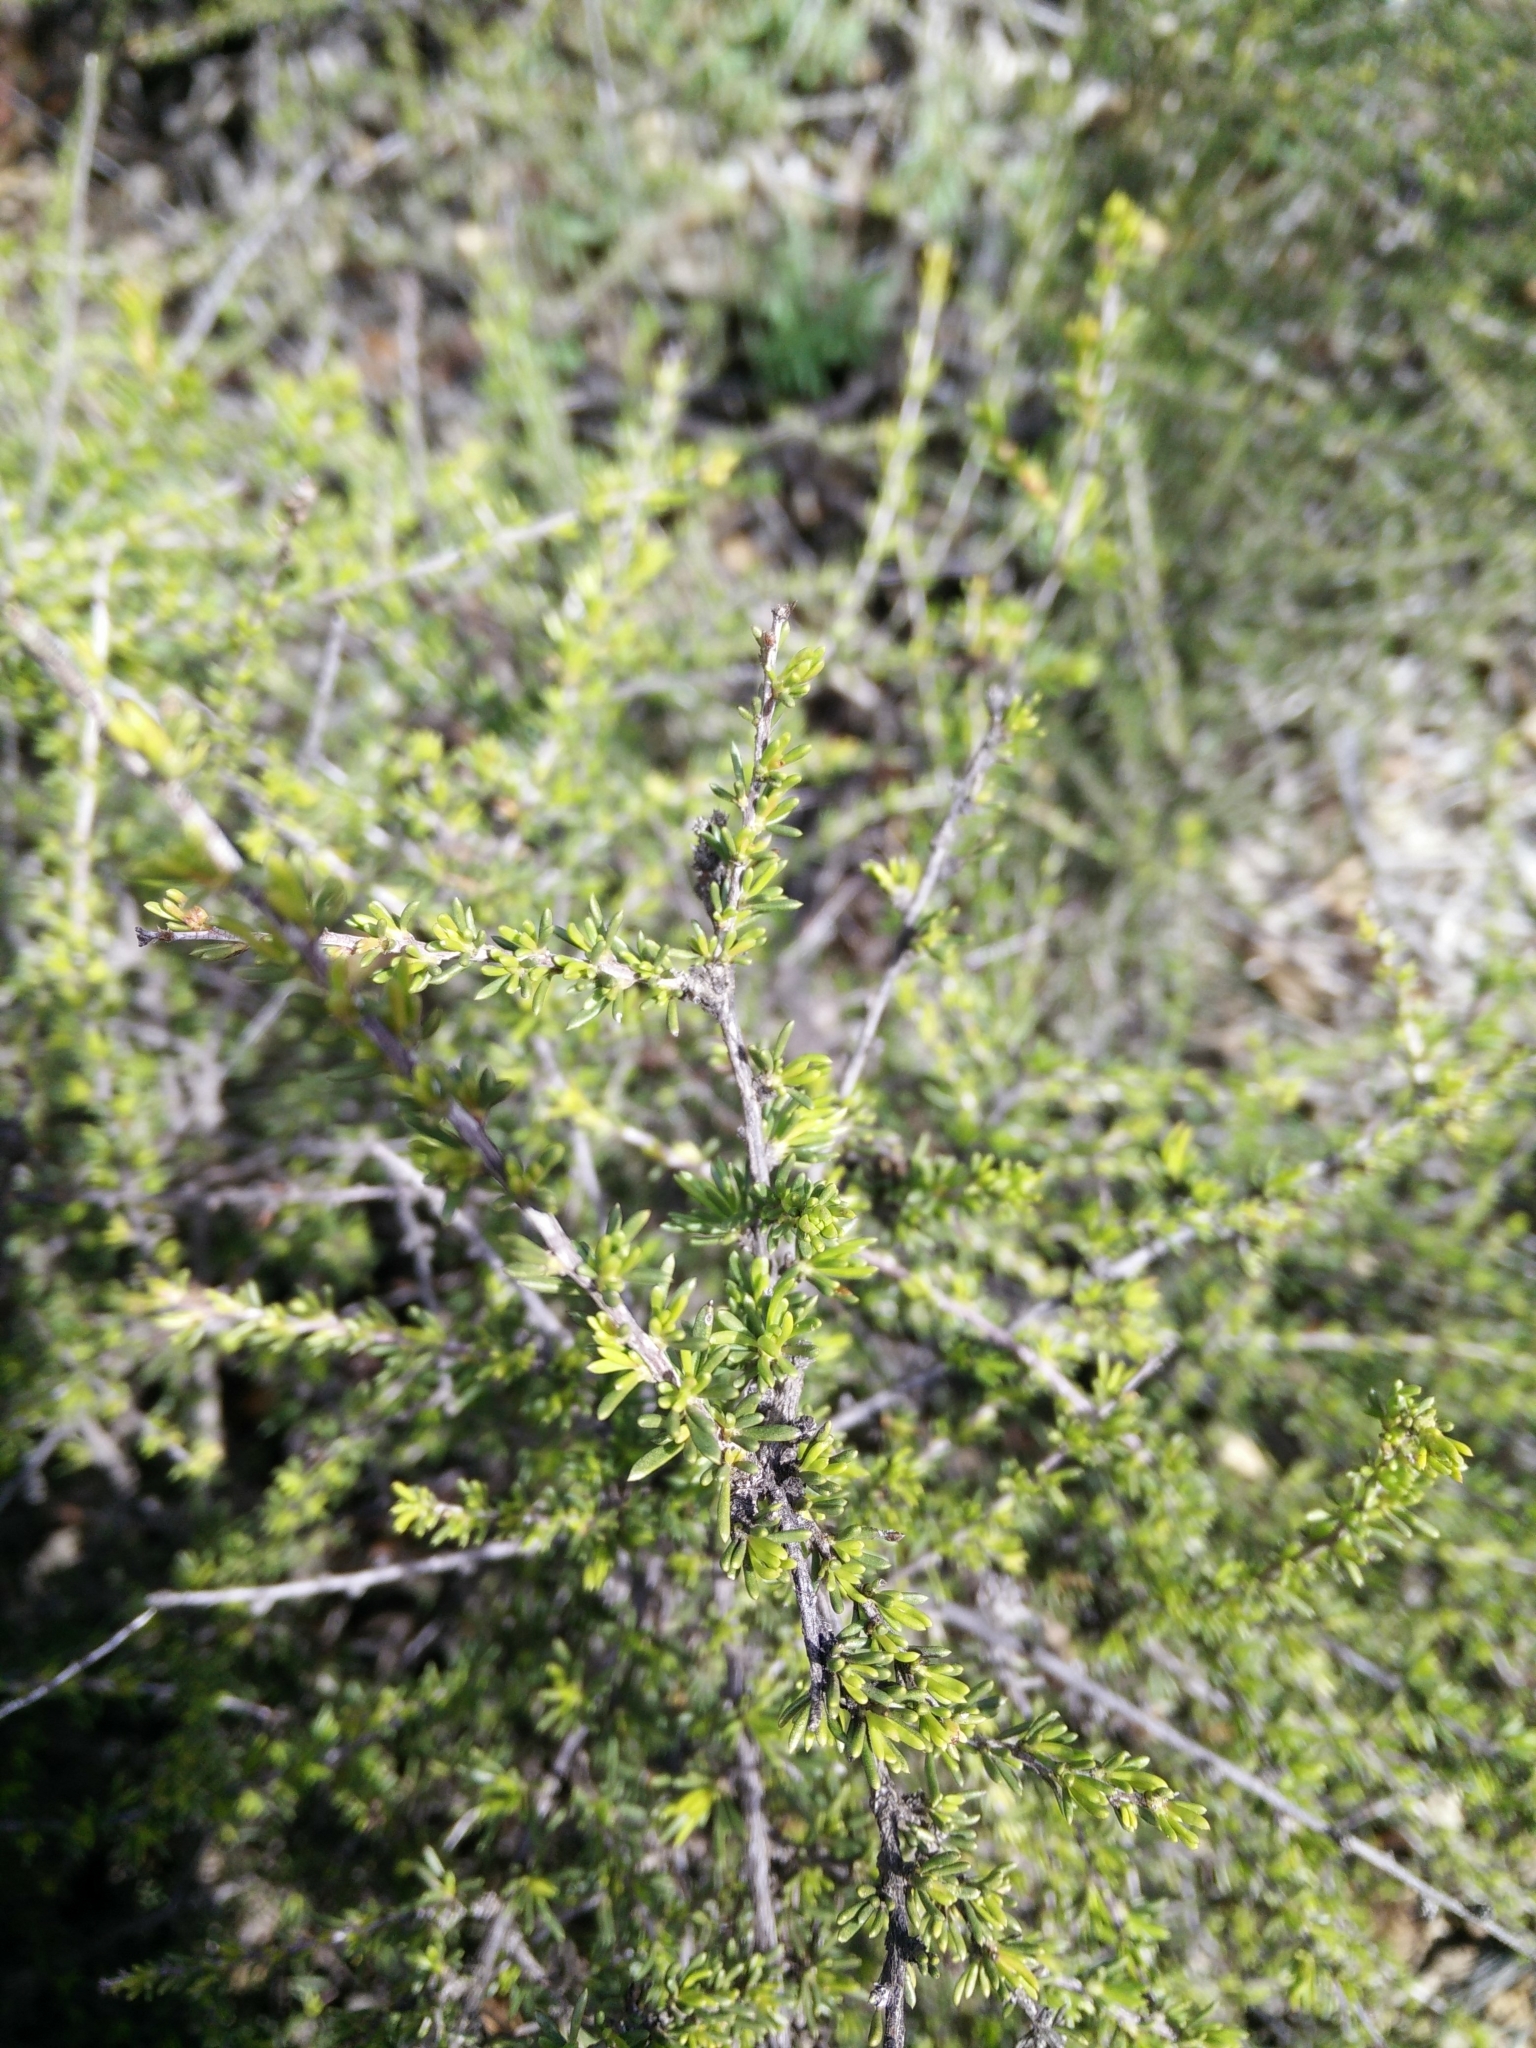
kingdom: Plantae
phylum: Tracheophyta
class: Magnoliopsida
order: Rosales
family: Rosaceae
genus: Adenostoma
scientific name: Adenostoma fasciculatum
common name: Chamise
